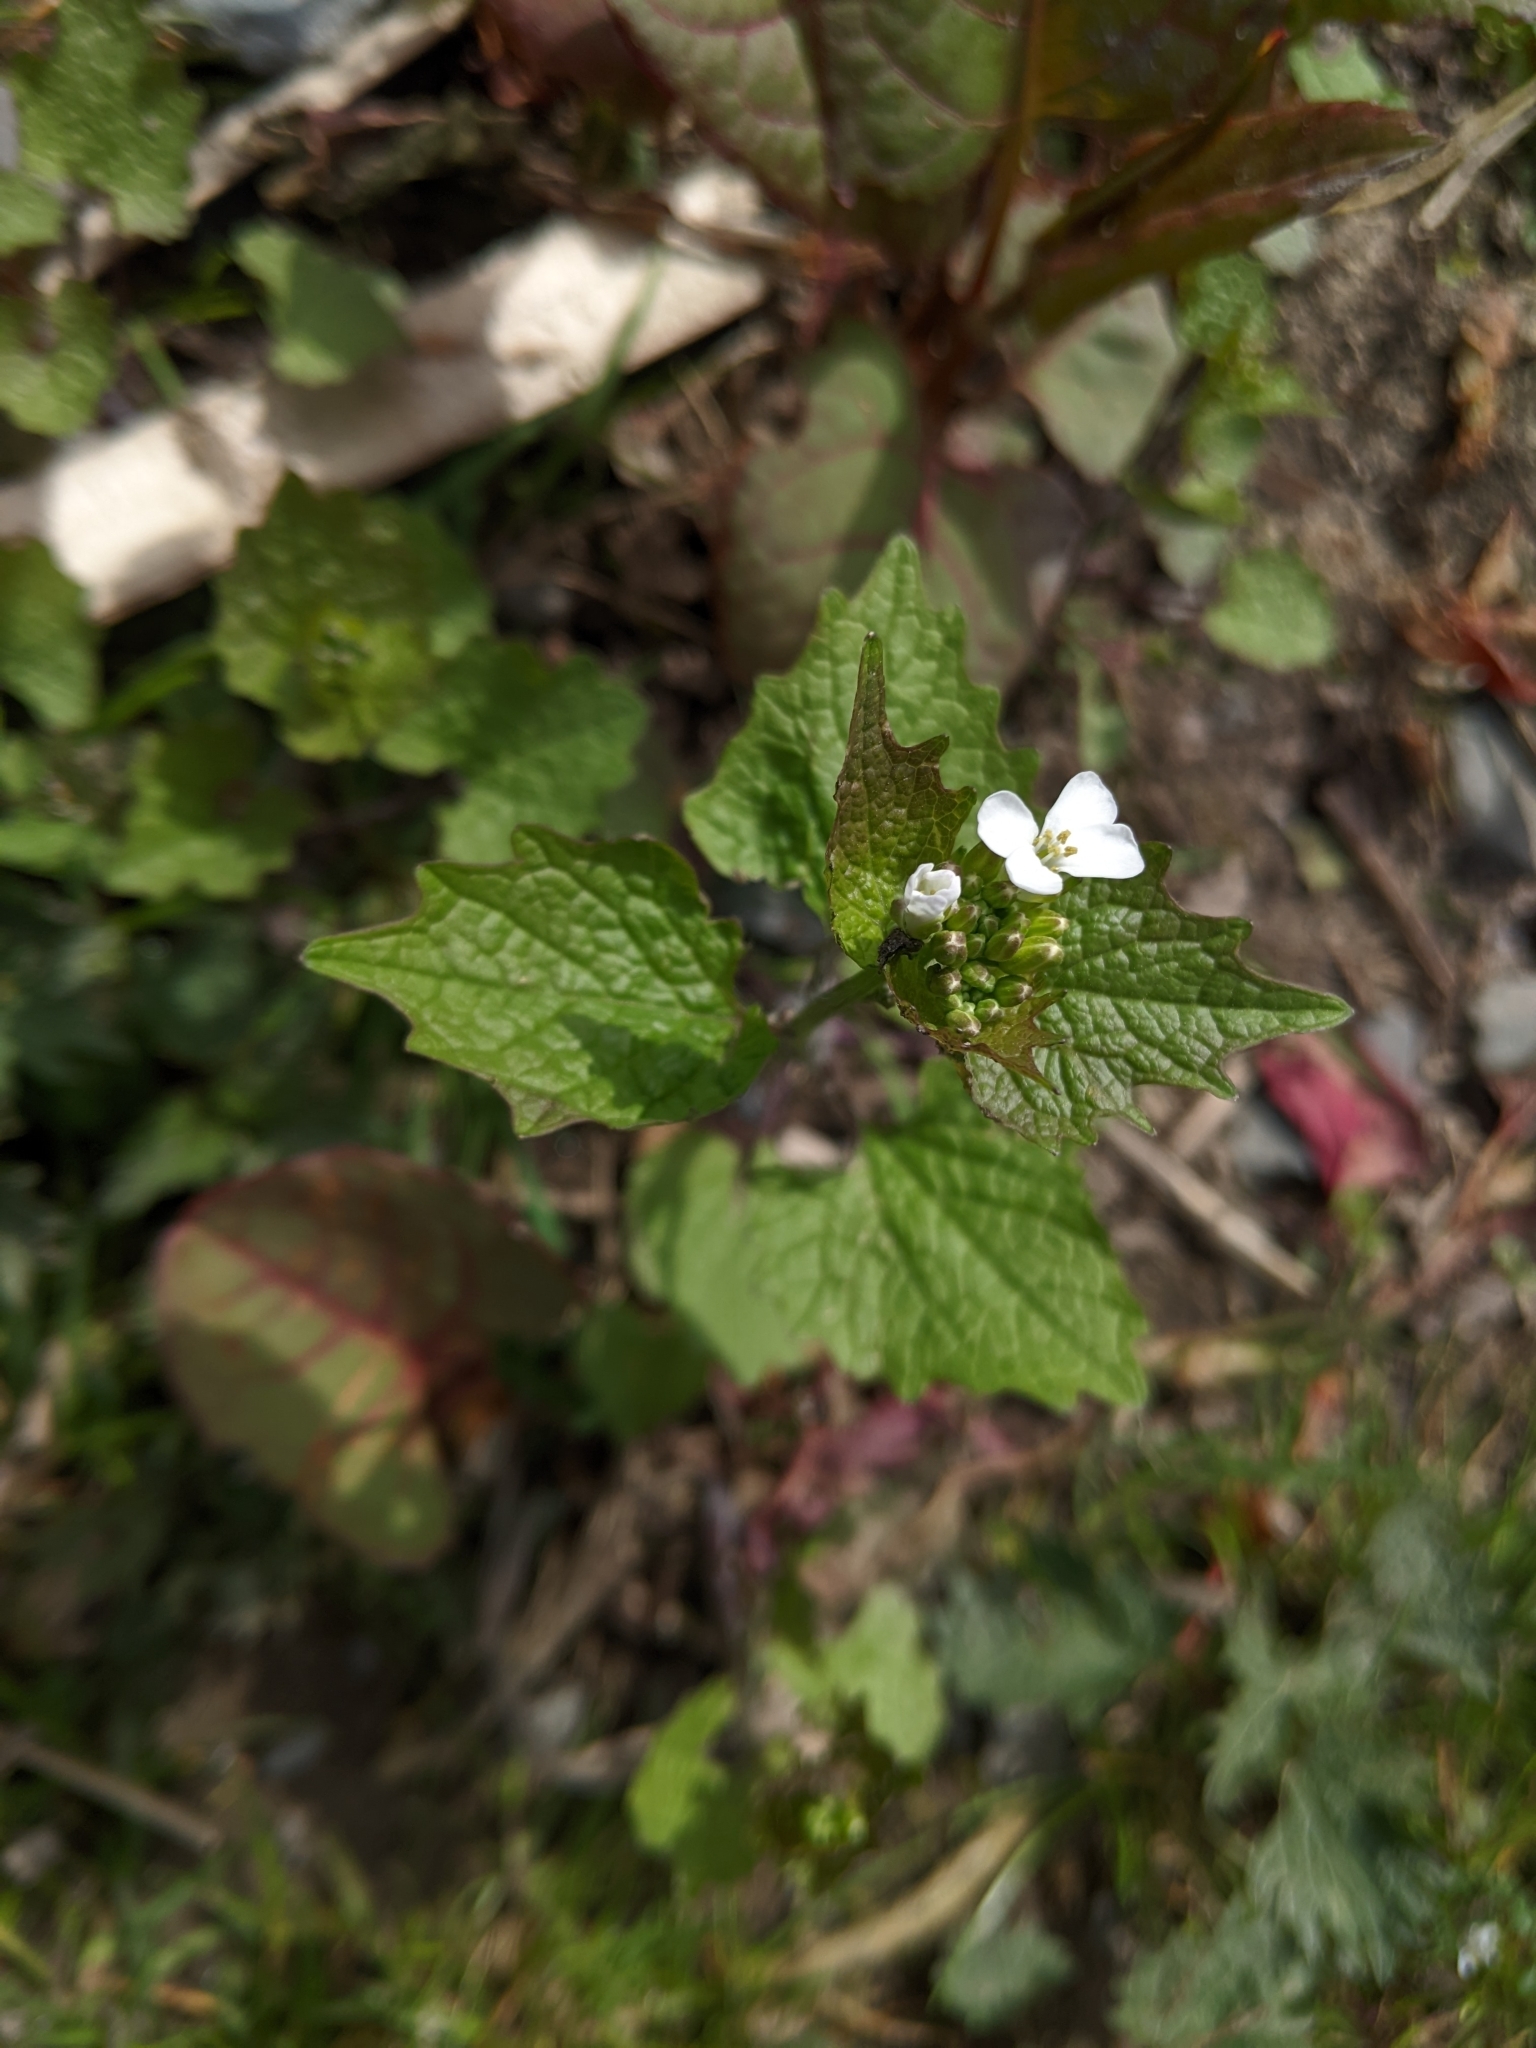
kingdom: Plantae
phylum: Tracheophyta
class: Magnoliopsida
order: Brassicales
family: Brassicaceae
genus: Alliaria
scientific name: Alliaria petiolata
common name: Garlic mustard
